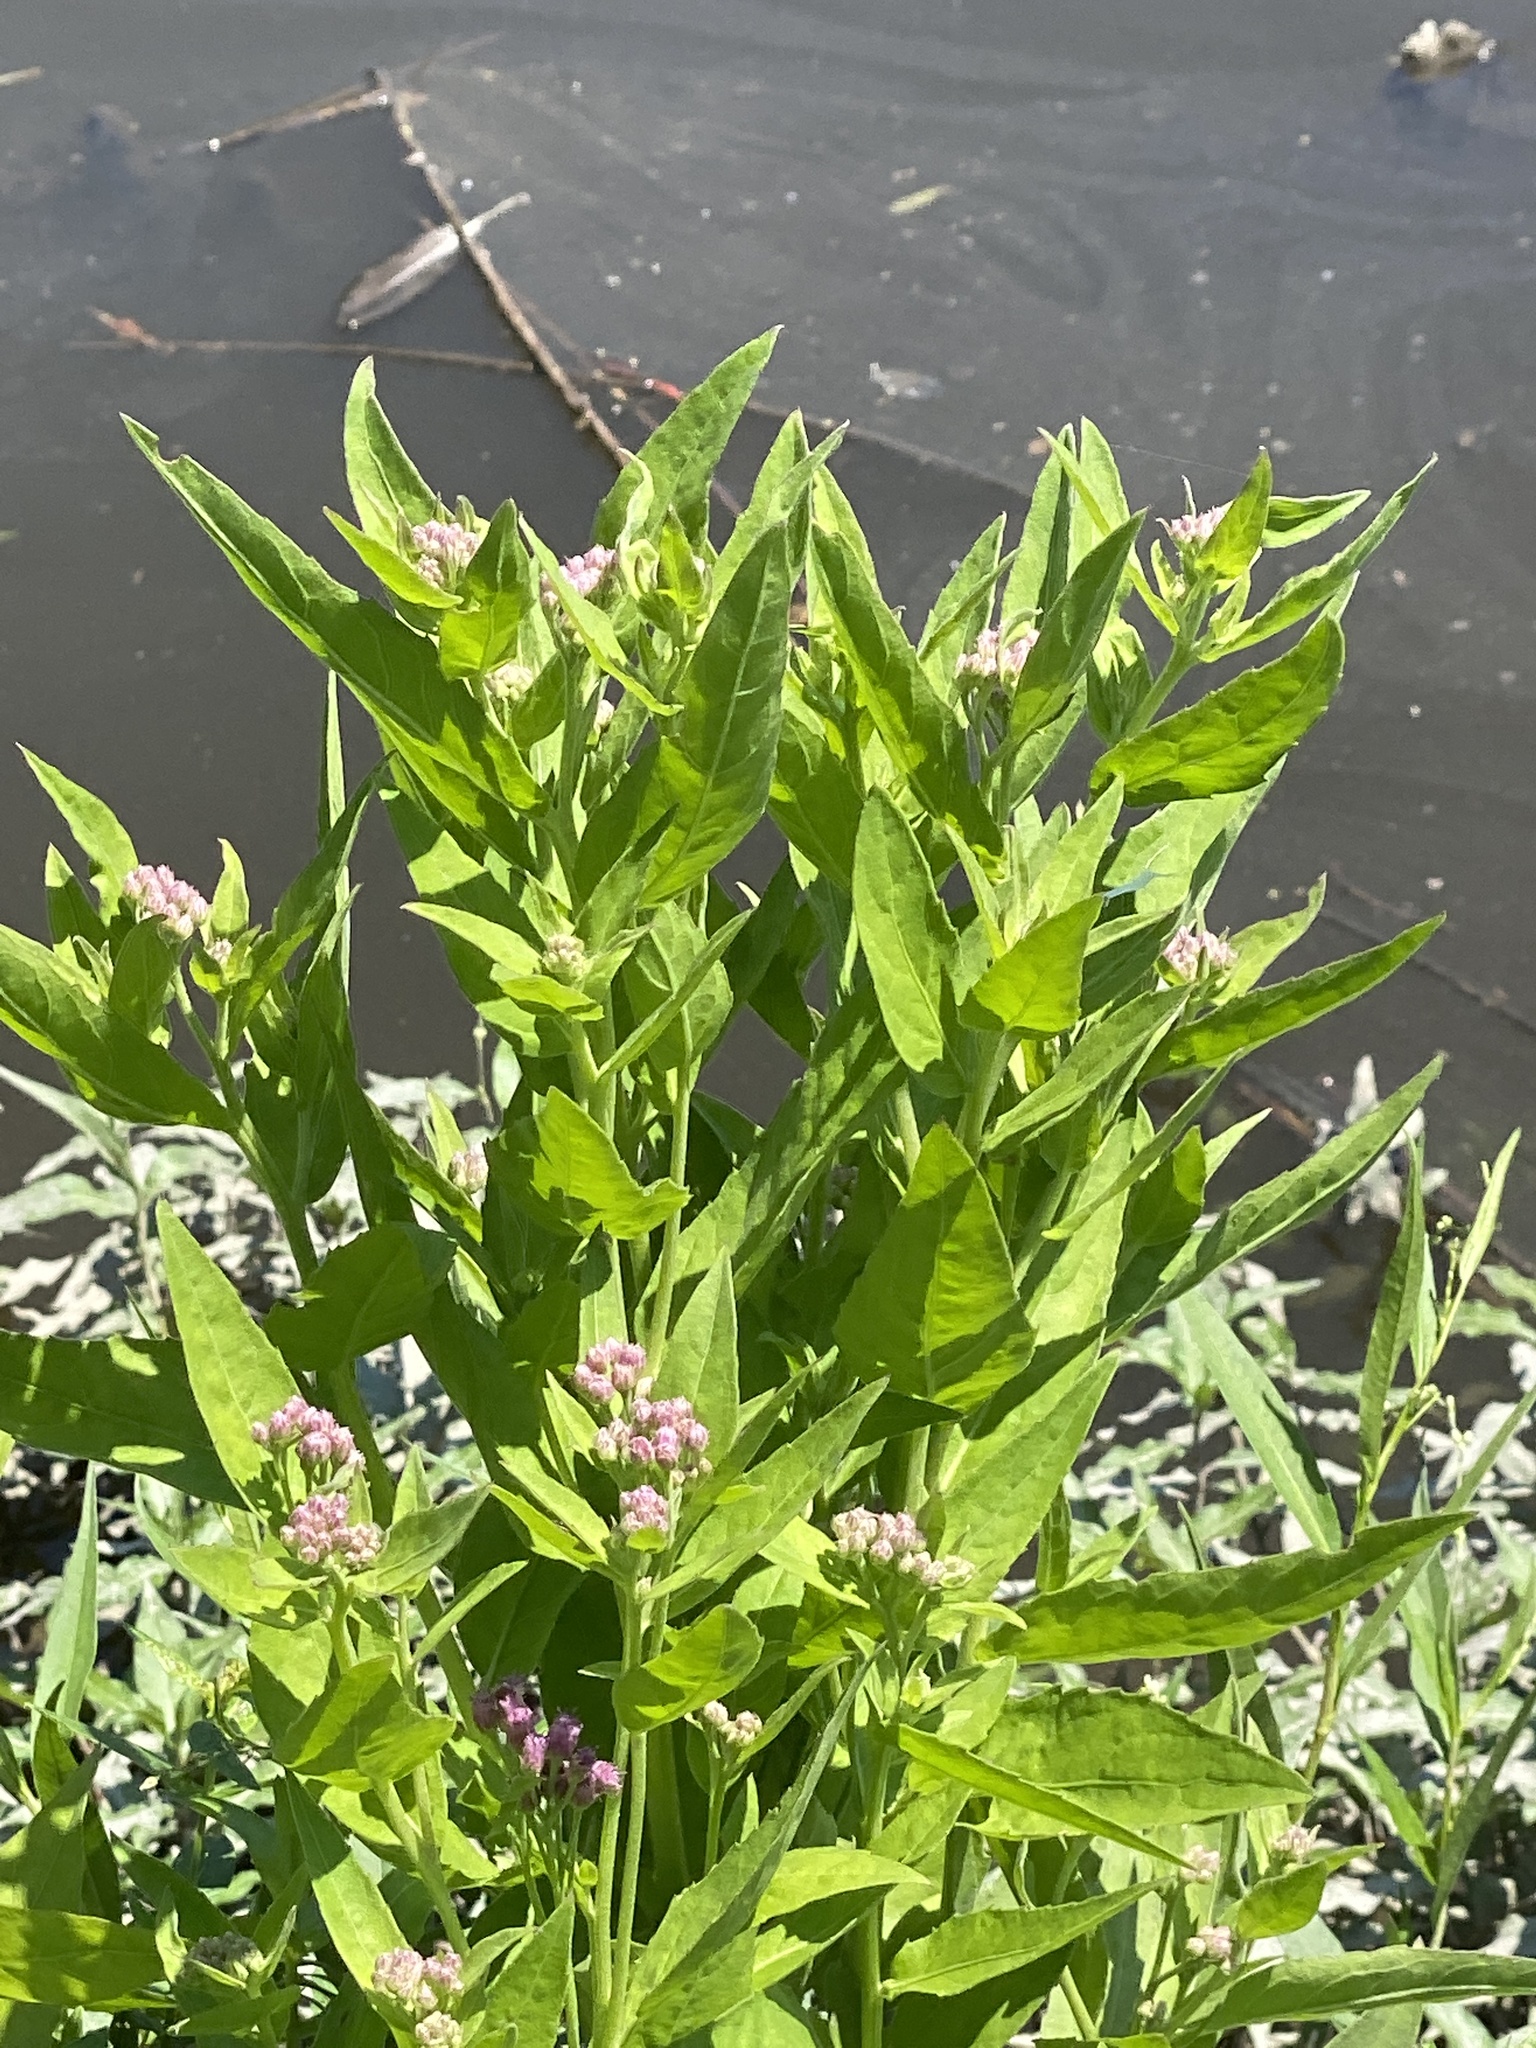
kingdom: Plantae
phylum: Tracheophyta
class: Magnoliopsida
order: Asterales
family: Asteraceae
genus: Pluchea
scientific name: Pluchea odorata
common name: Saltmarsh fleabane
